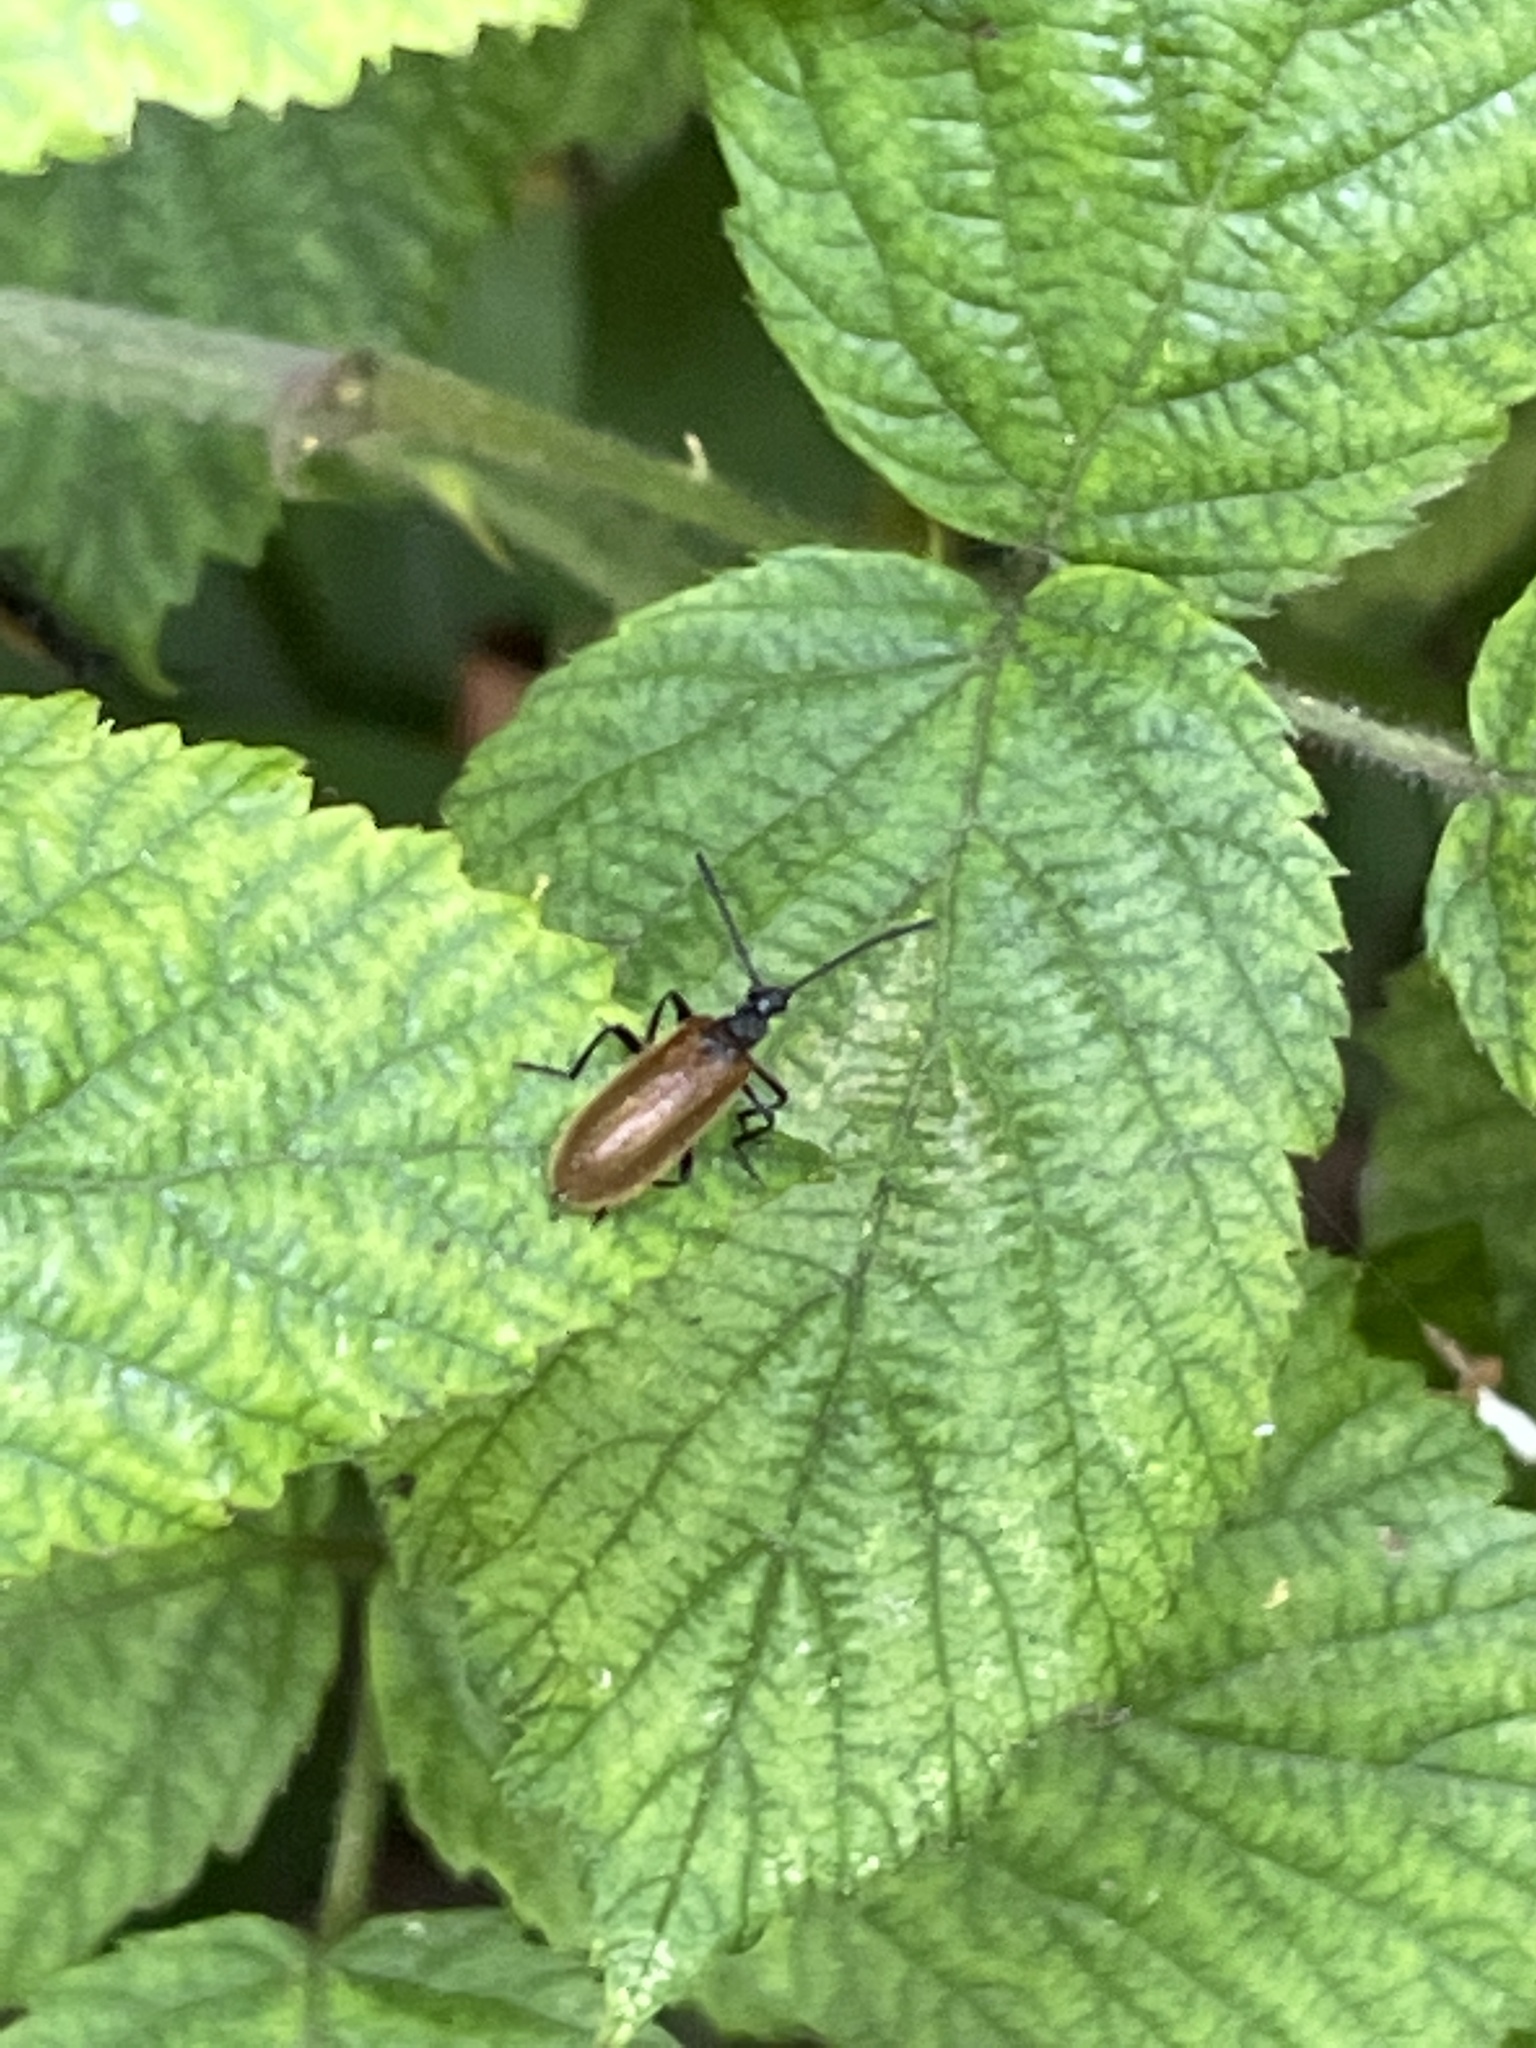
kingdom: Animalia
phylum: Arthropoda
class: Insecta
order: Coleoptera
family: Tenebrionidae
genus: Lagria
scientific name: Lagria hirta
